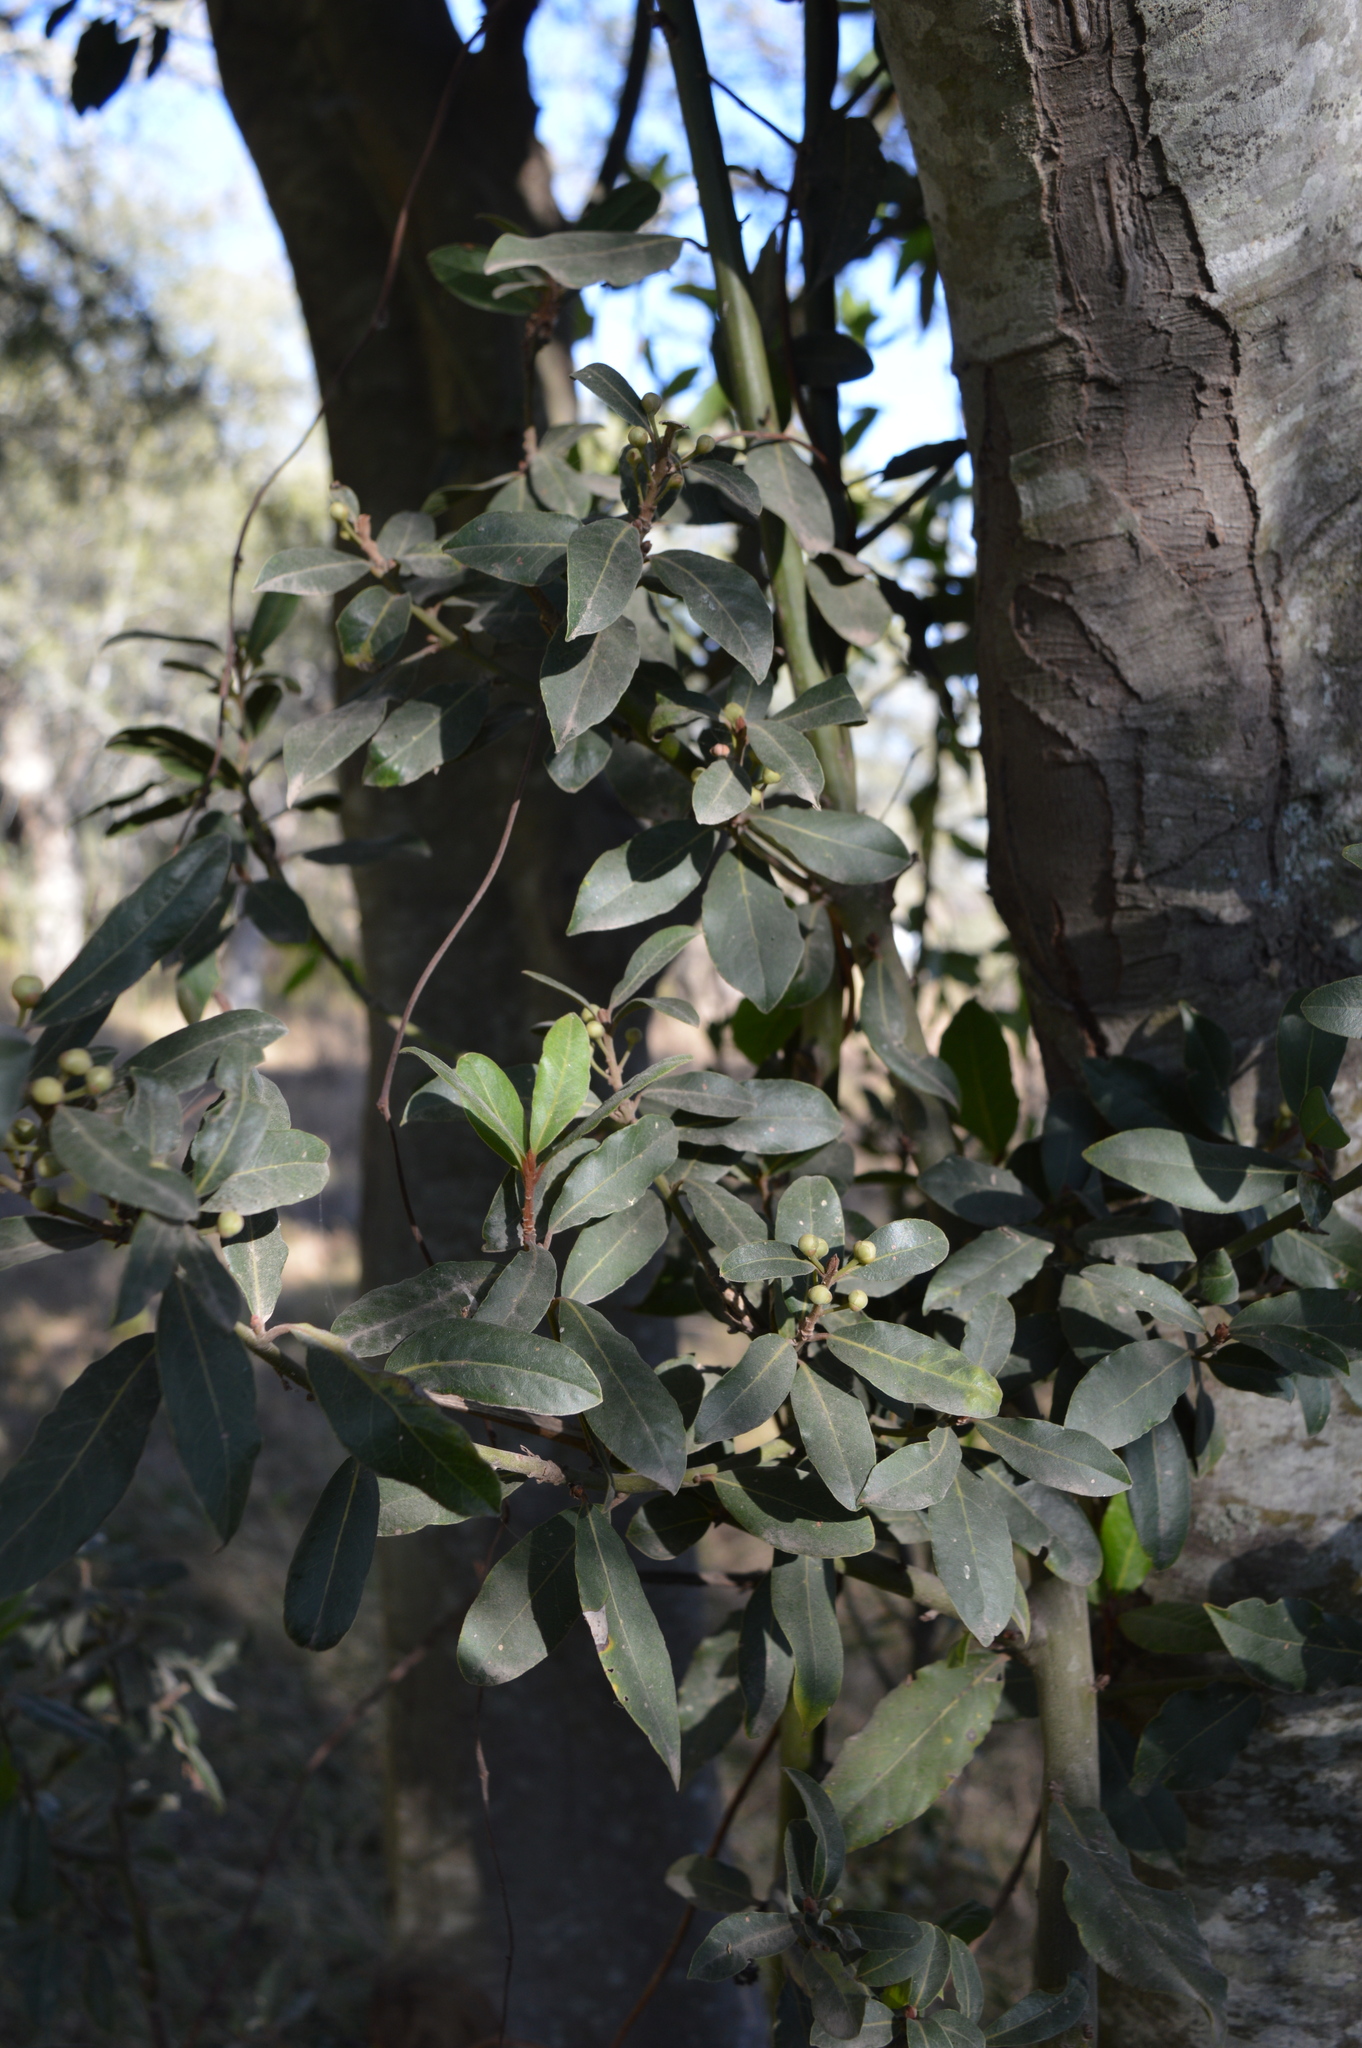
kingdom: Plantae
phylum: Tracheophyta
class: Magnoliopsida
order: Laurales
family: Lauraceae
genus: Laurus
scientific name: Laurus nobilis
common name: Bay
